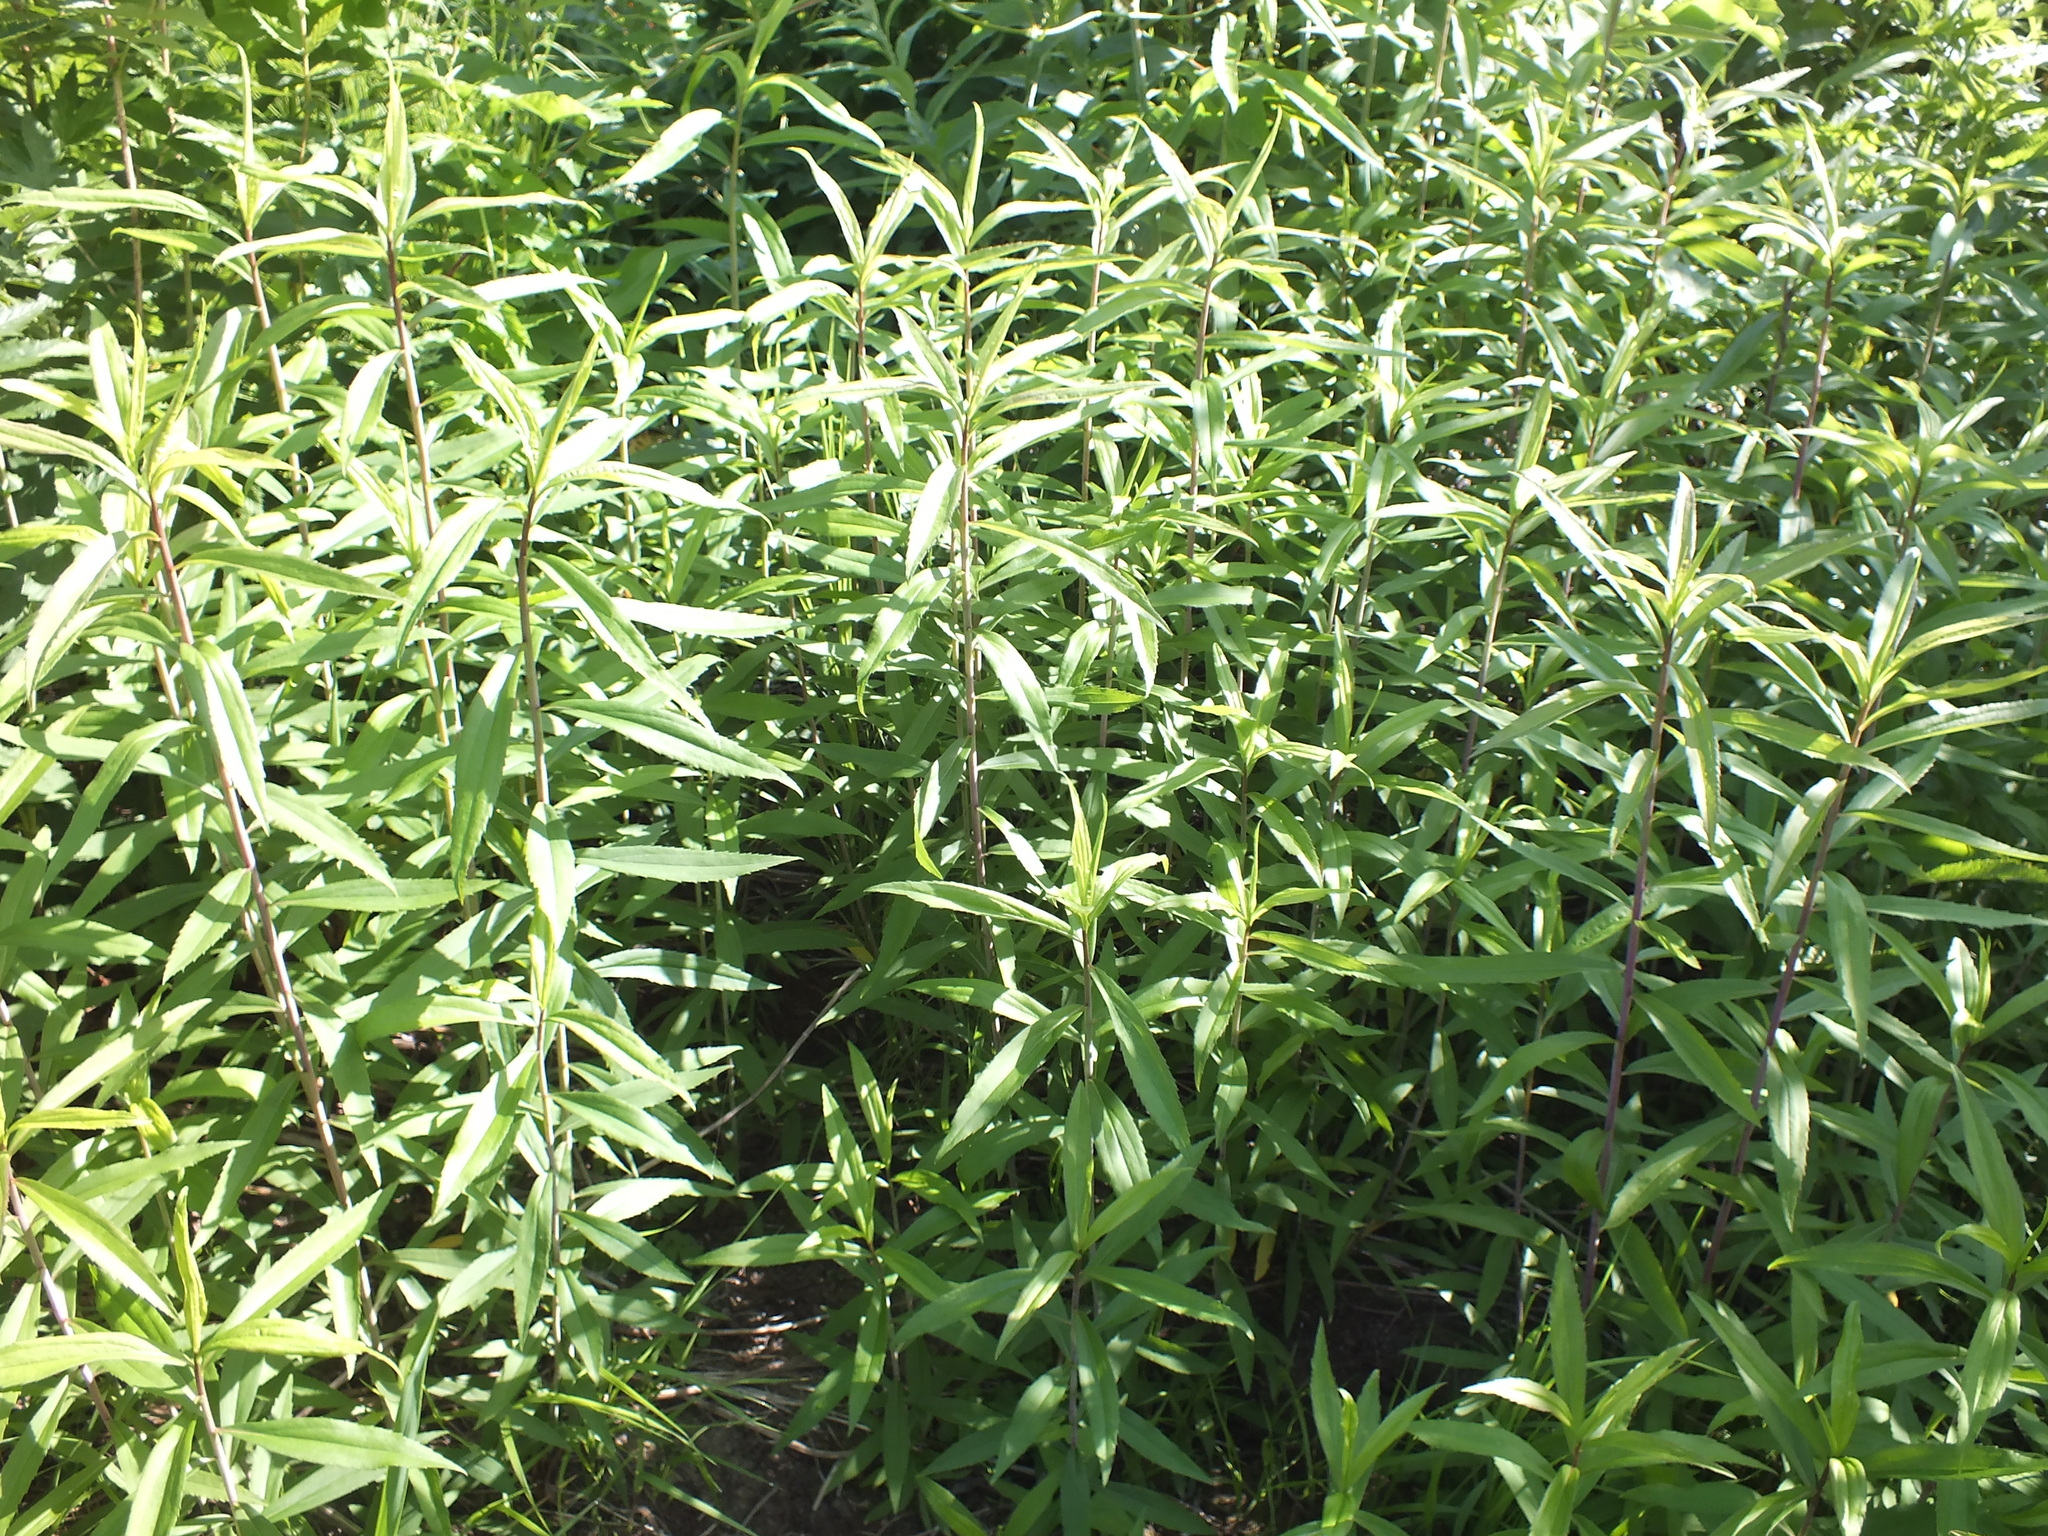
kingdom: Plantae
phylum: Tracheophyta
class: Magnoliopsida
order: Asterales
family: Asteraceae
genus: Solidago
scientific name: Solidago gigantea
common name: Giant goldenrod
